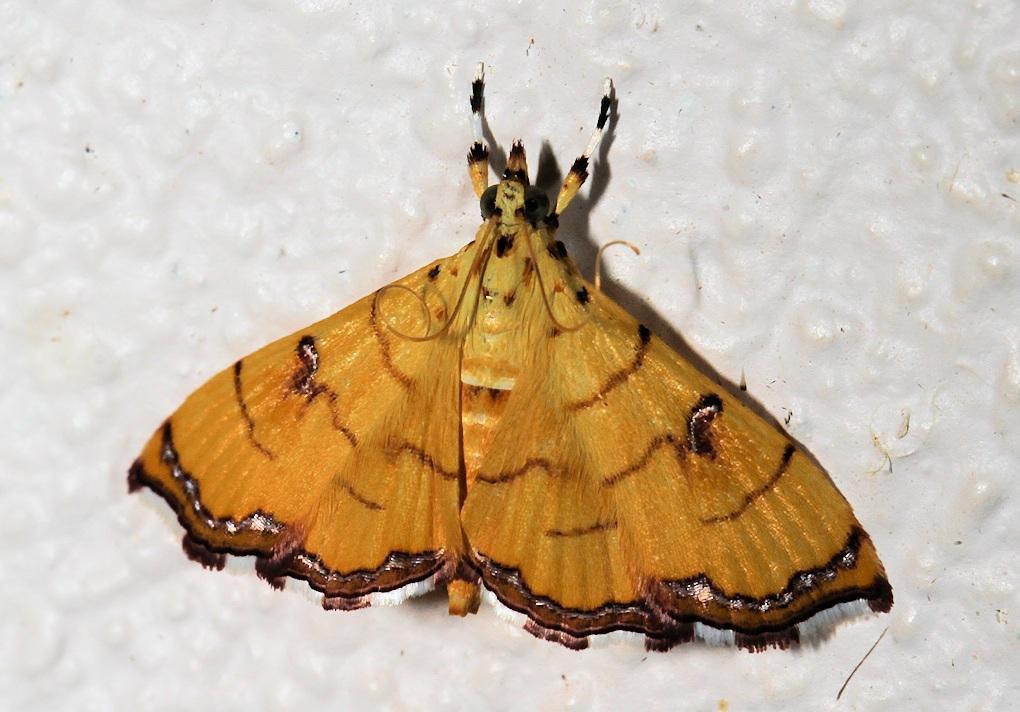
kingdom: Animalia
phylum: Arthropoda
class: Insecta
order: Lepidoptera
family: Crambidae
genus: Isocentris
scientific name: Isocentris filalis
